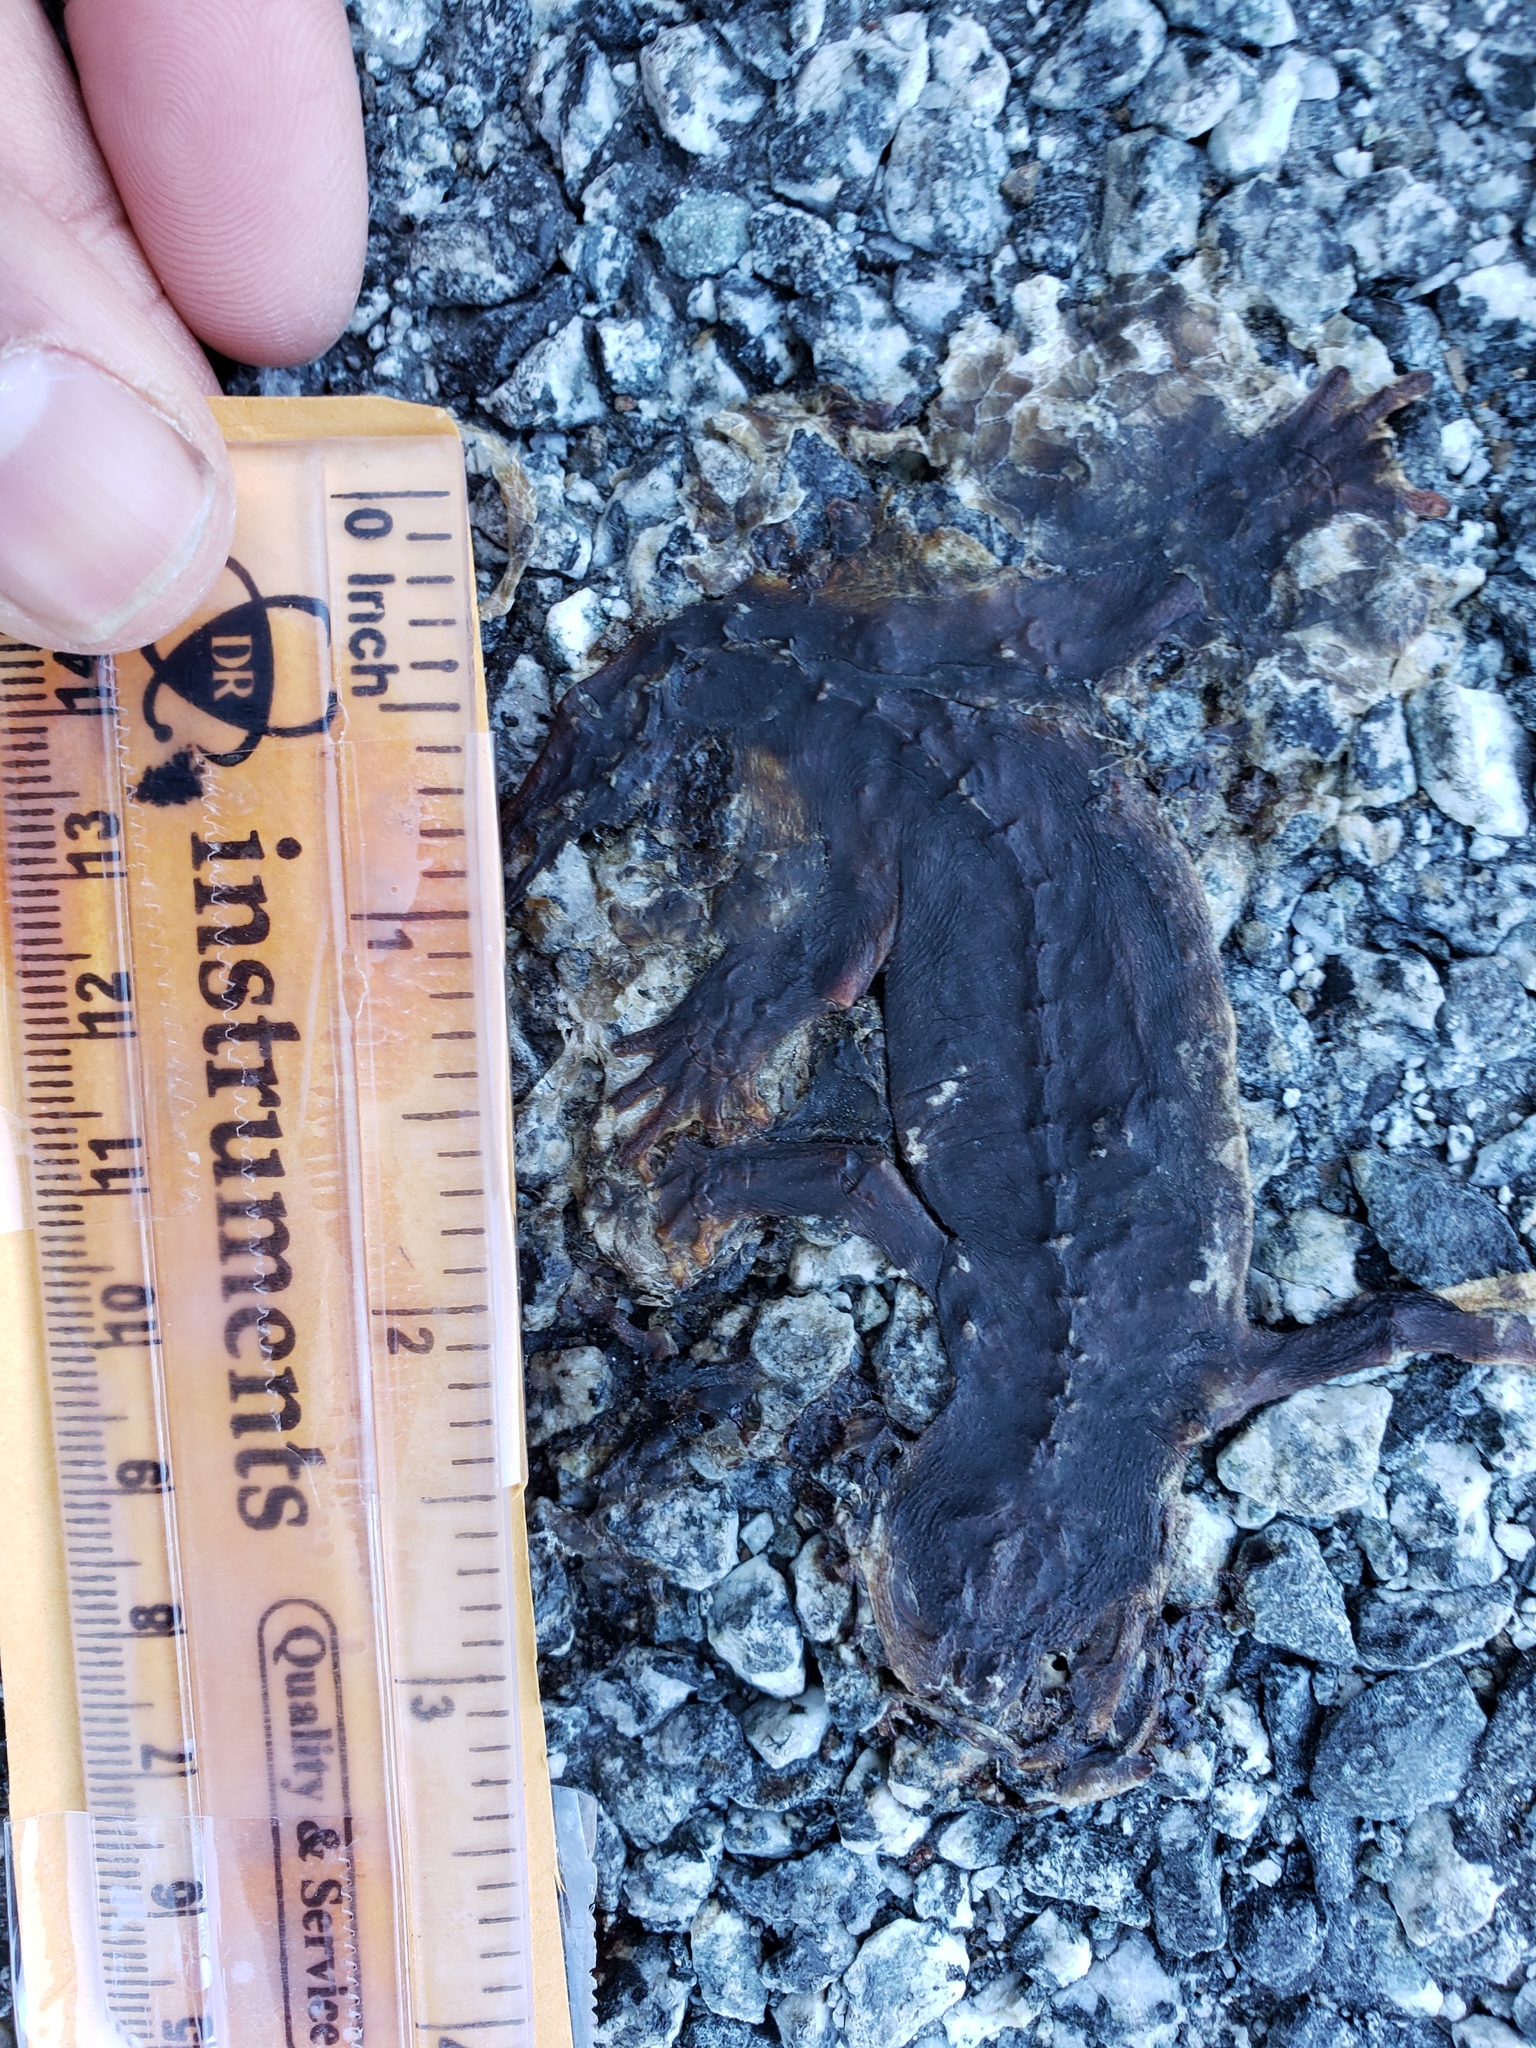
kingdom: Animalia
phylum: Chordata
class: Amphibia
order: Caudata
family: Salamandridae
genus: Taricha
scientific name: Taricha
